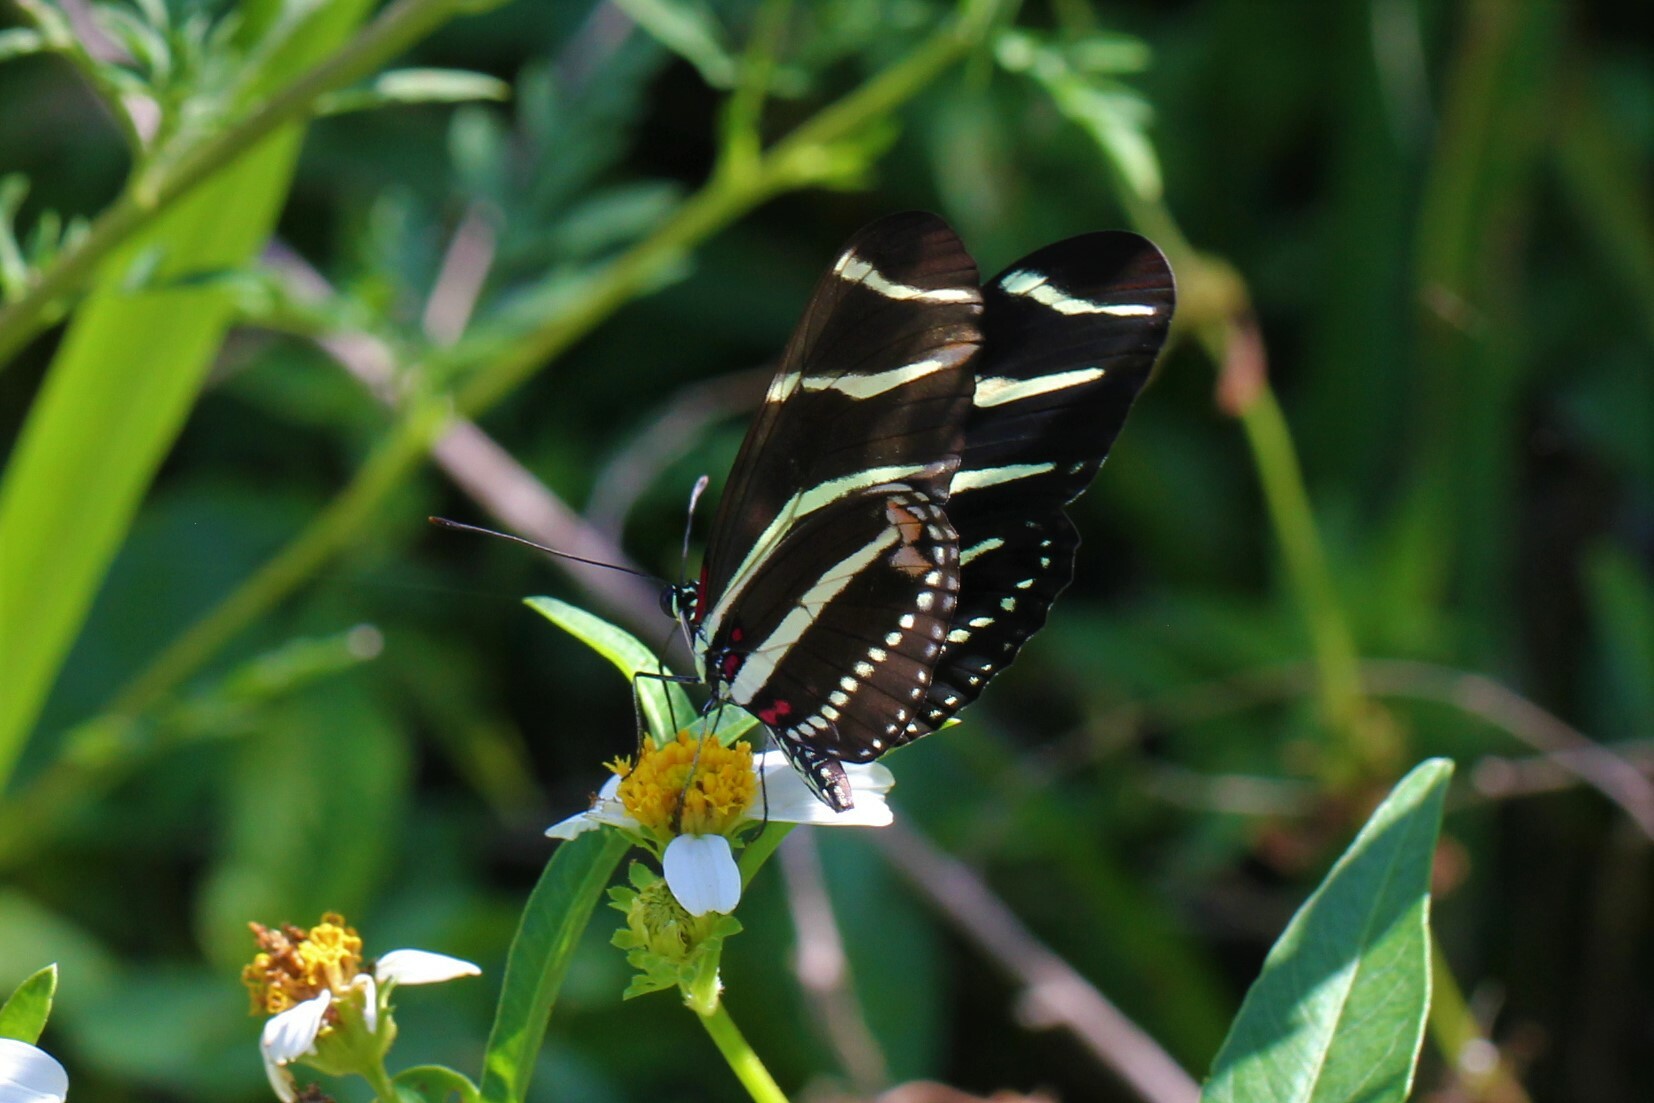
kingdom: Animalia
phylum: Arthropoda
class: Insecta
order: Lepidoptera
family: Nymphalidae
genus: Heliconius
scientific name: Heliconius charithonia
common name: Zebra long wing
